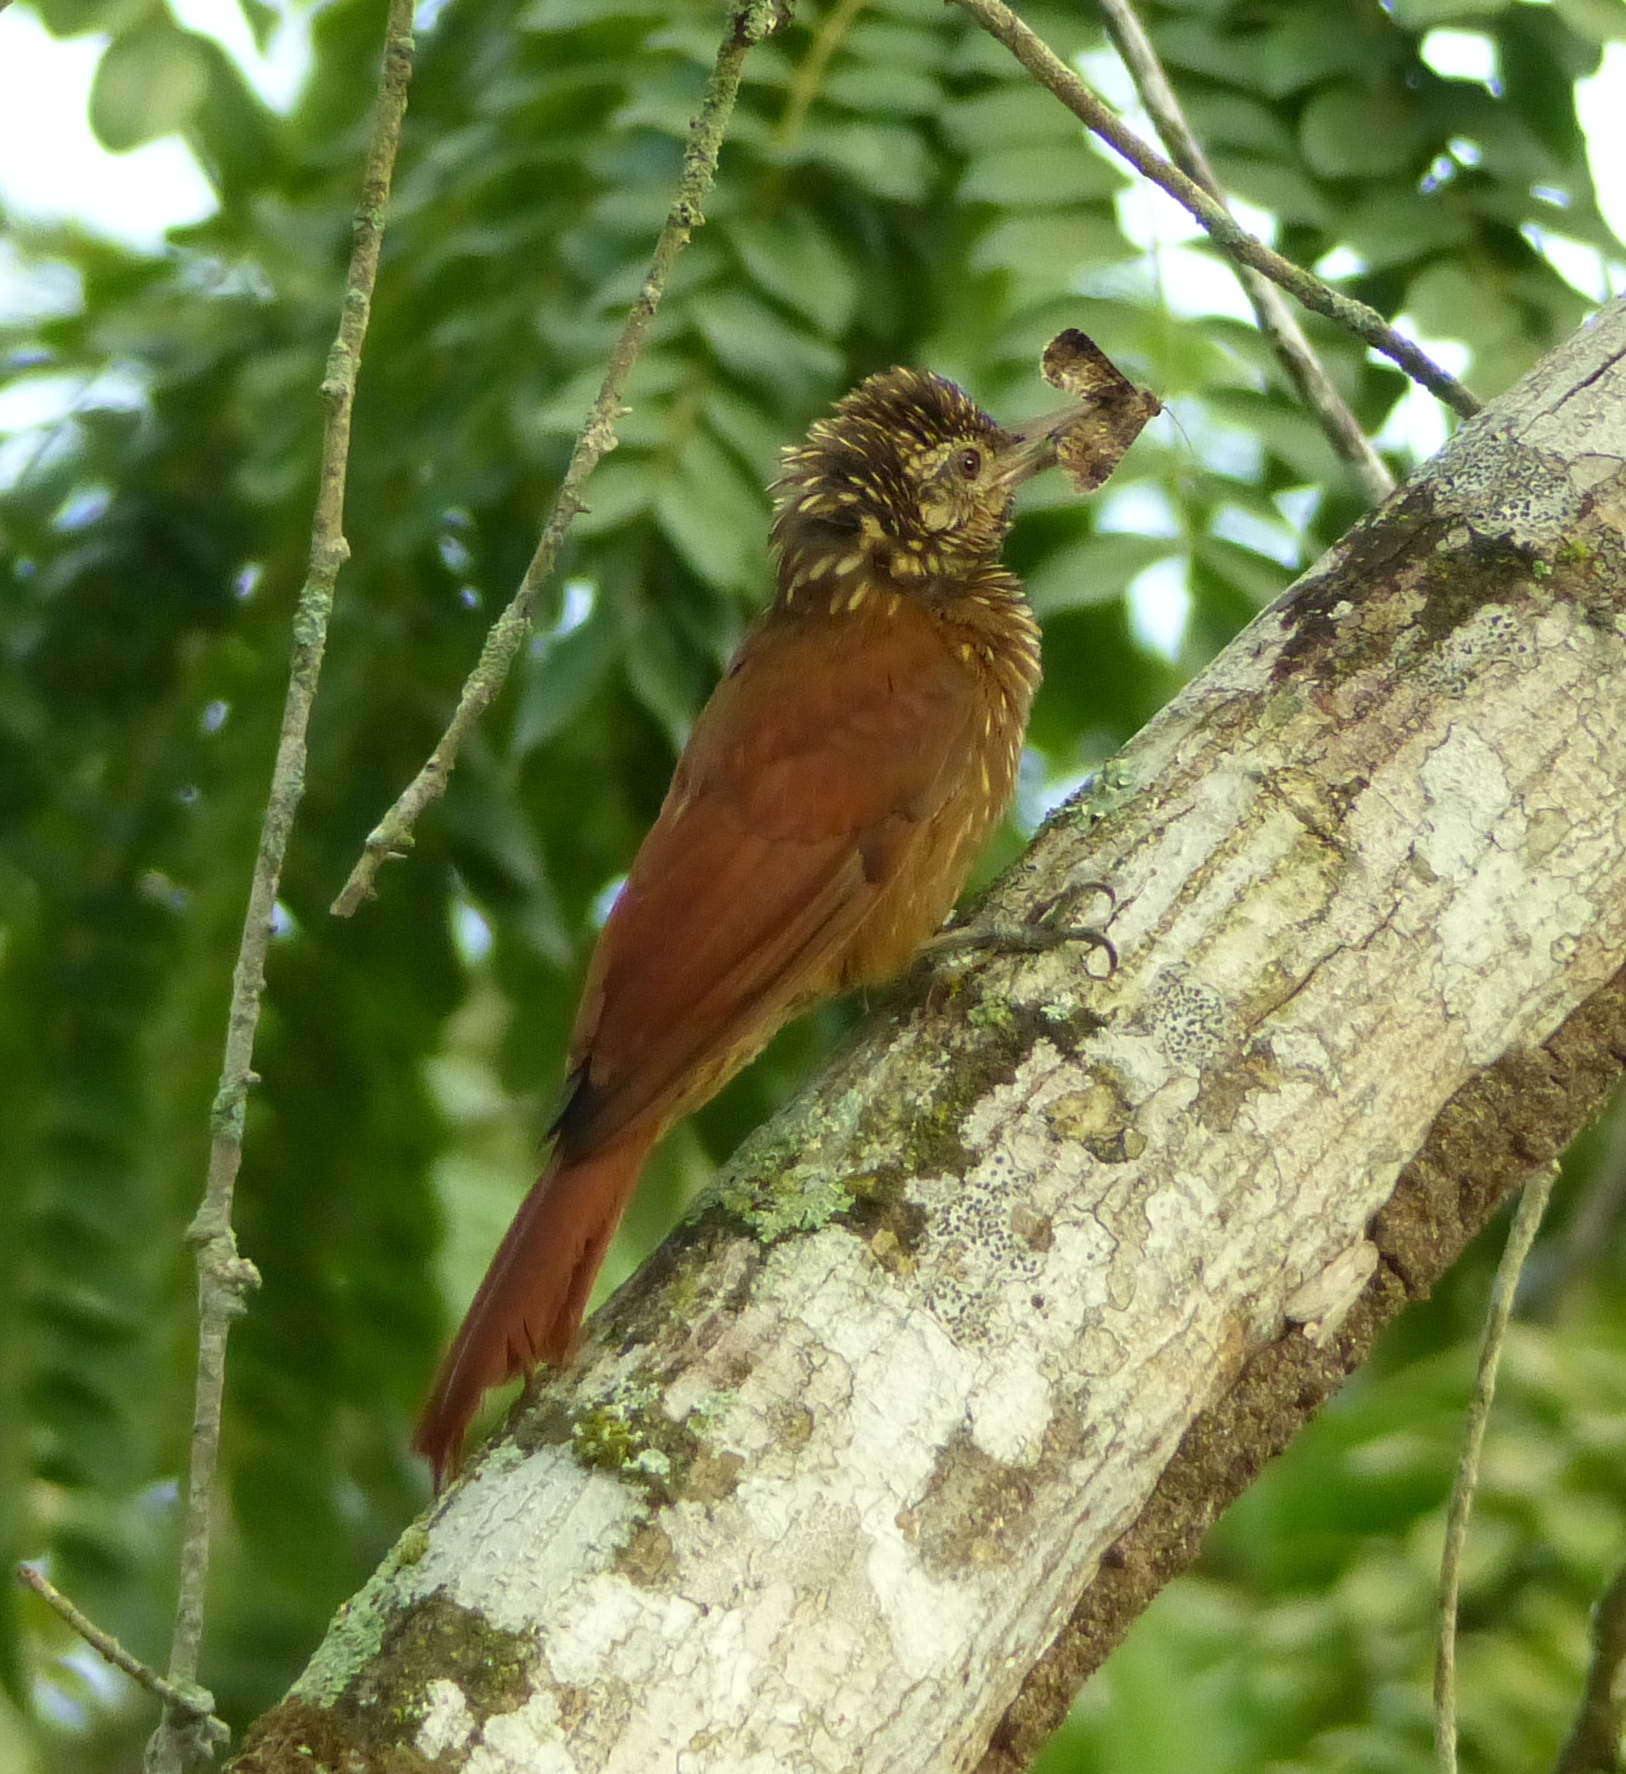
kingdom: Animalia
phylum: Chordata
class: Aves
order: Passeriformes
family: Furnariidae
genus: Xiphorhynchus
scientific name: Xiphorhynchus picus
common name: Straight-billed woodcreeper
